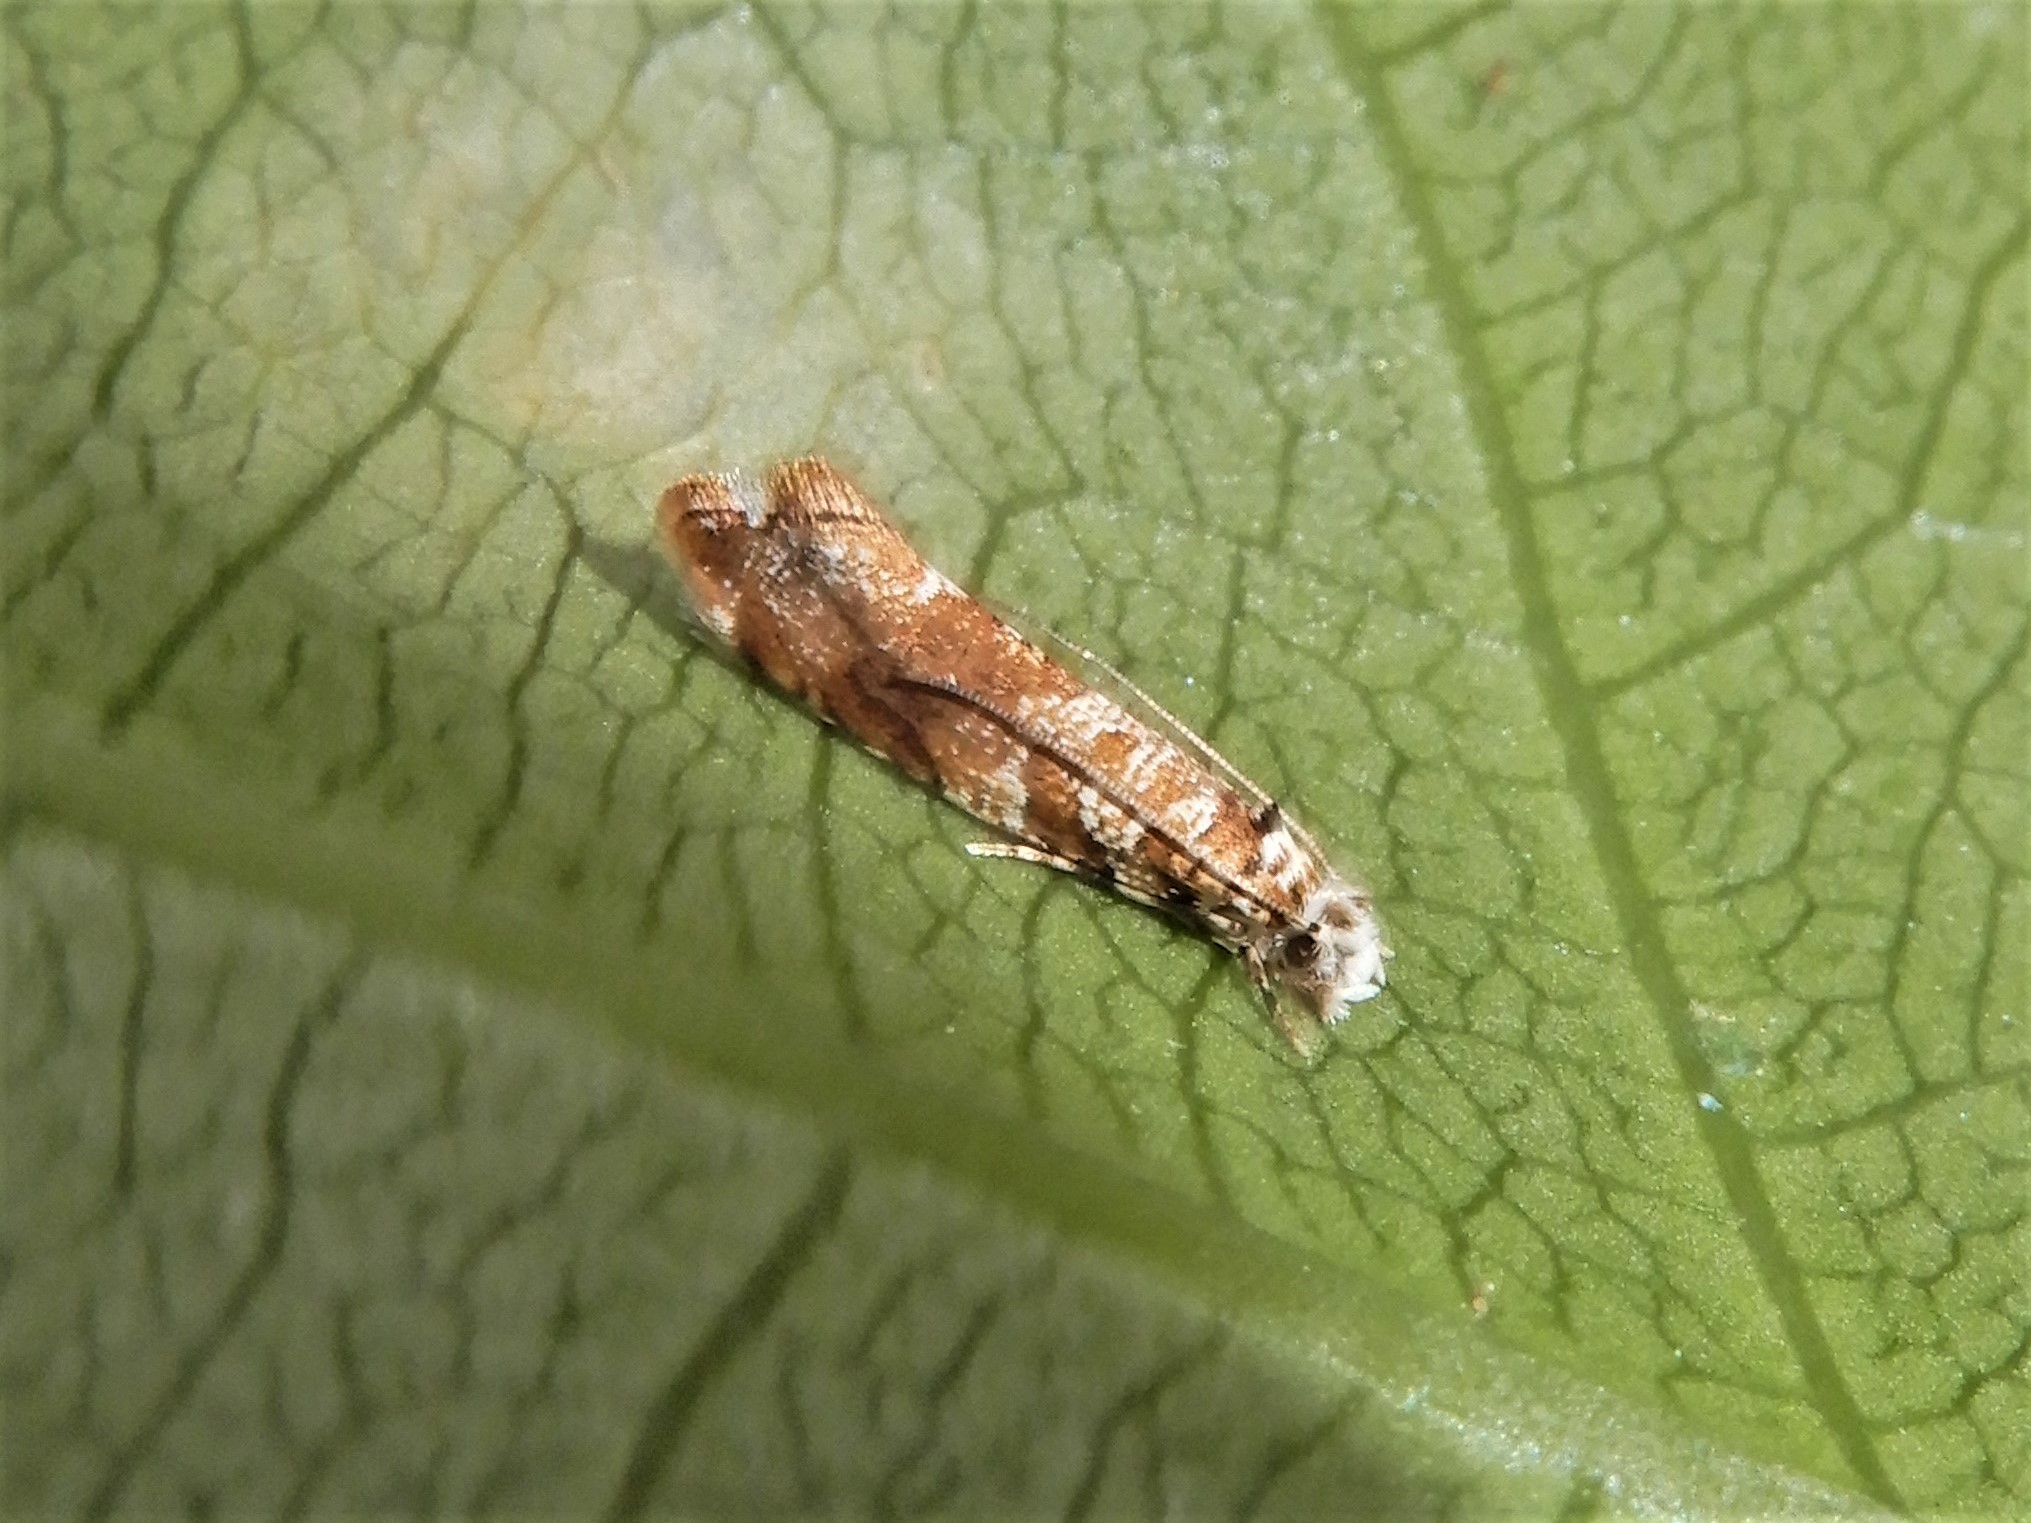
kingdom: Animalia
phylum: Arthropoda
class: Insecta
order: Lepidoptera
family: Tineidae
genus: Eschatotypa
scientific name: Eschatotypa derogatella
